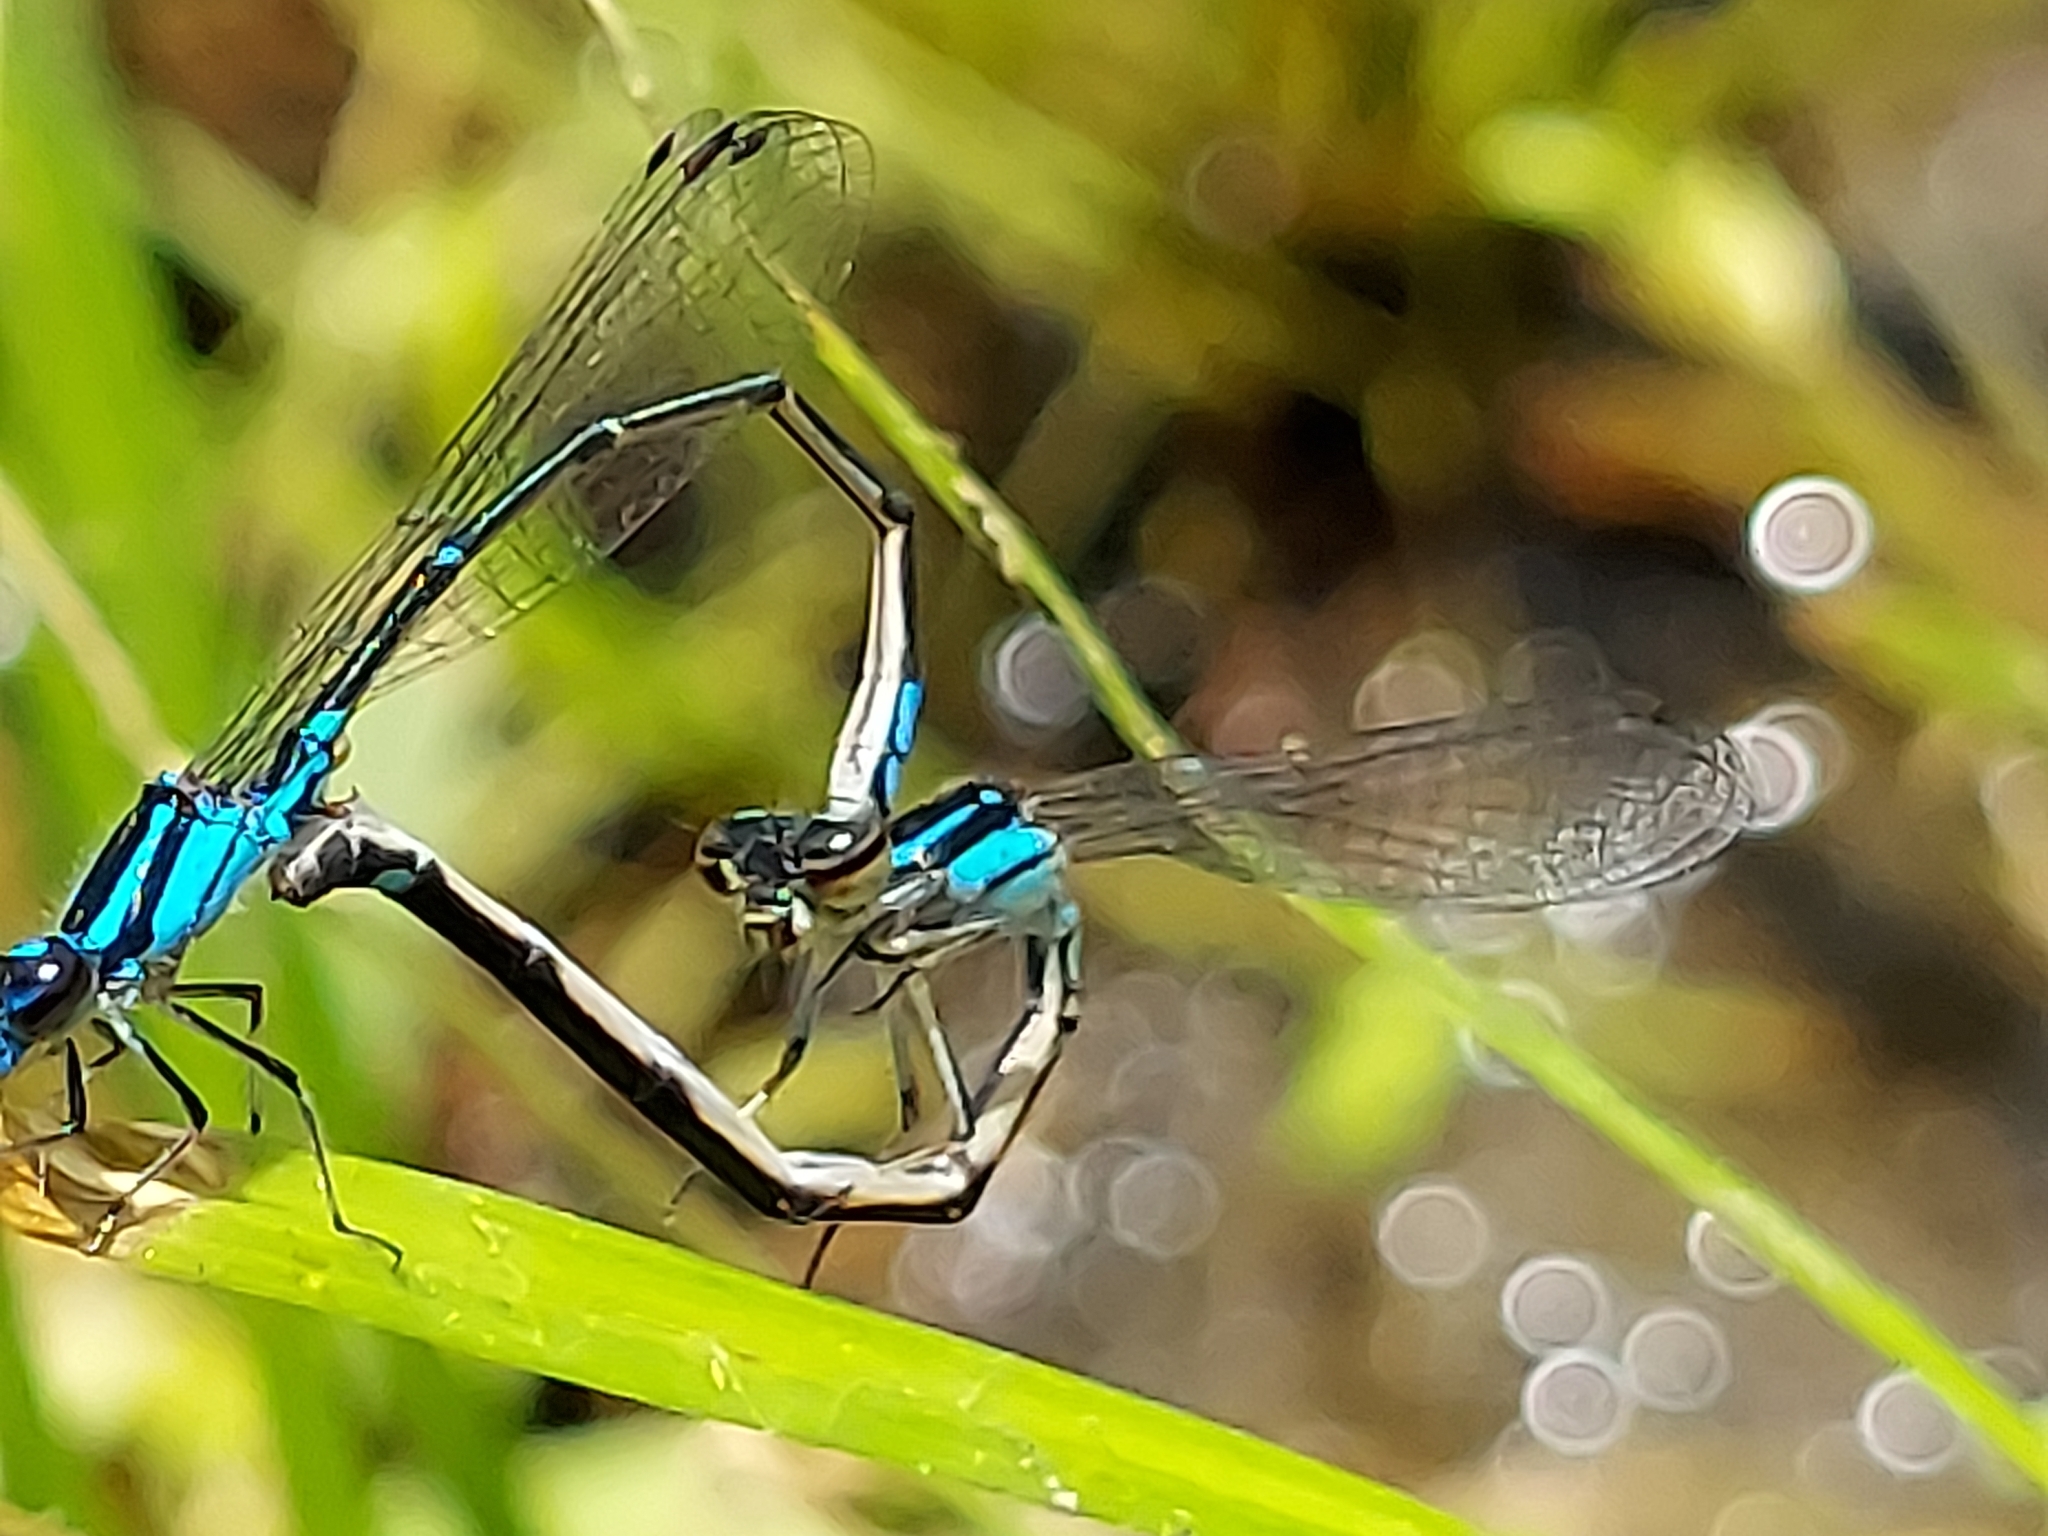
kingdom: Animalia
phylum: Arthropoda
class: Insecta
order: Odonata
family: Coenagrionidae
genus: Enallagma
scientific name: Enallagma geminatum
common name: Skimming bluet
